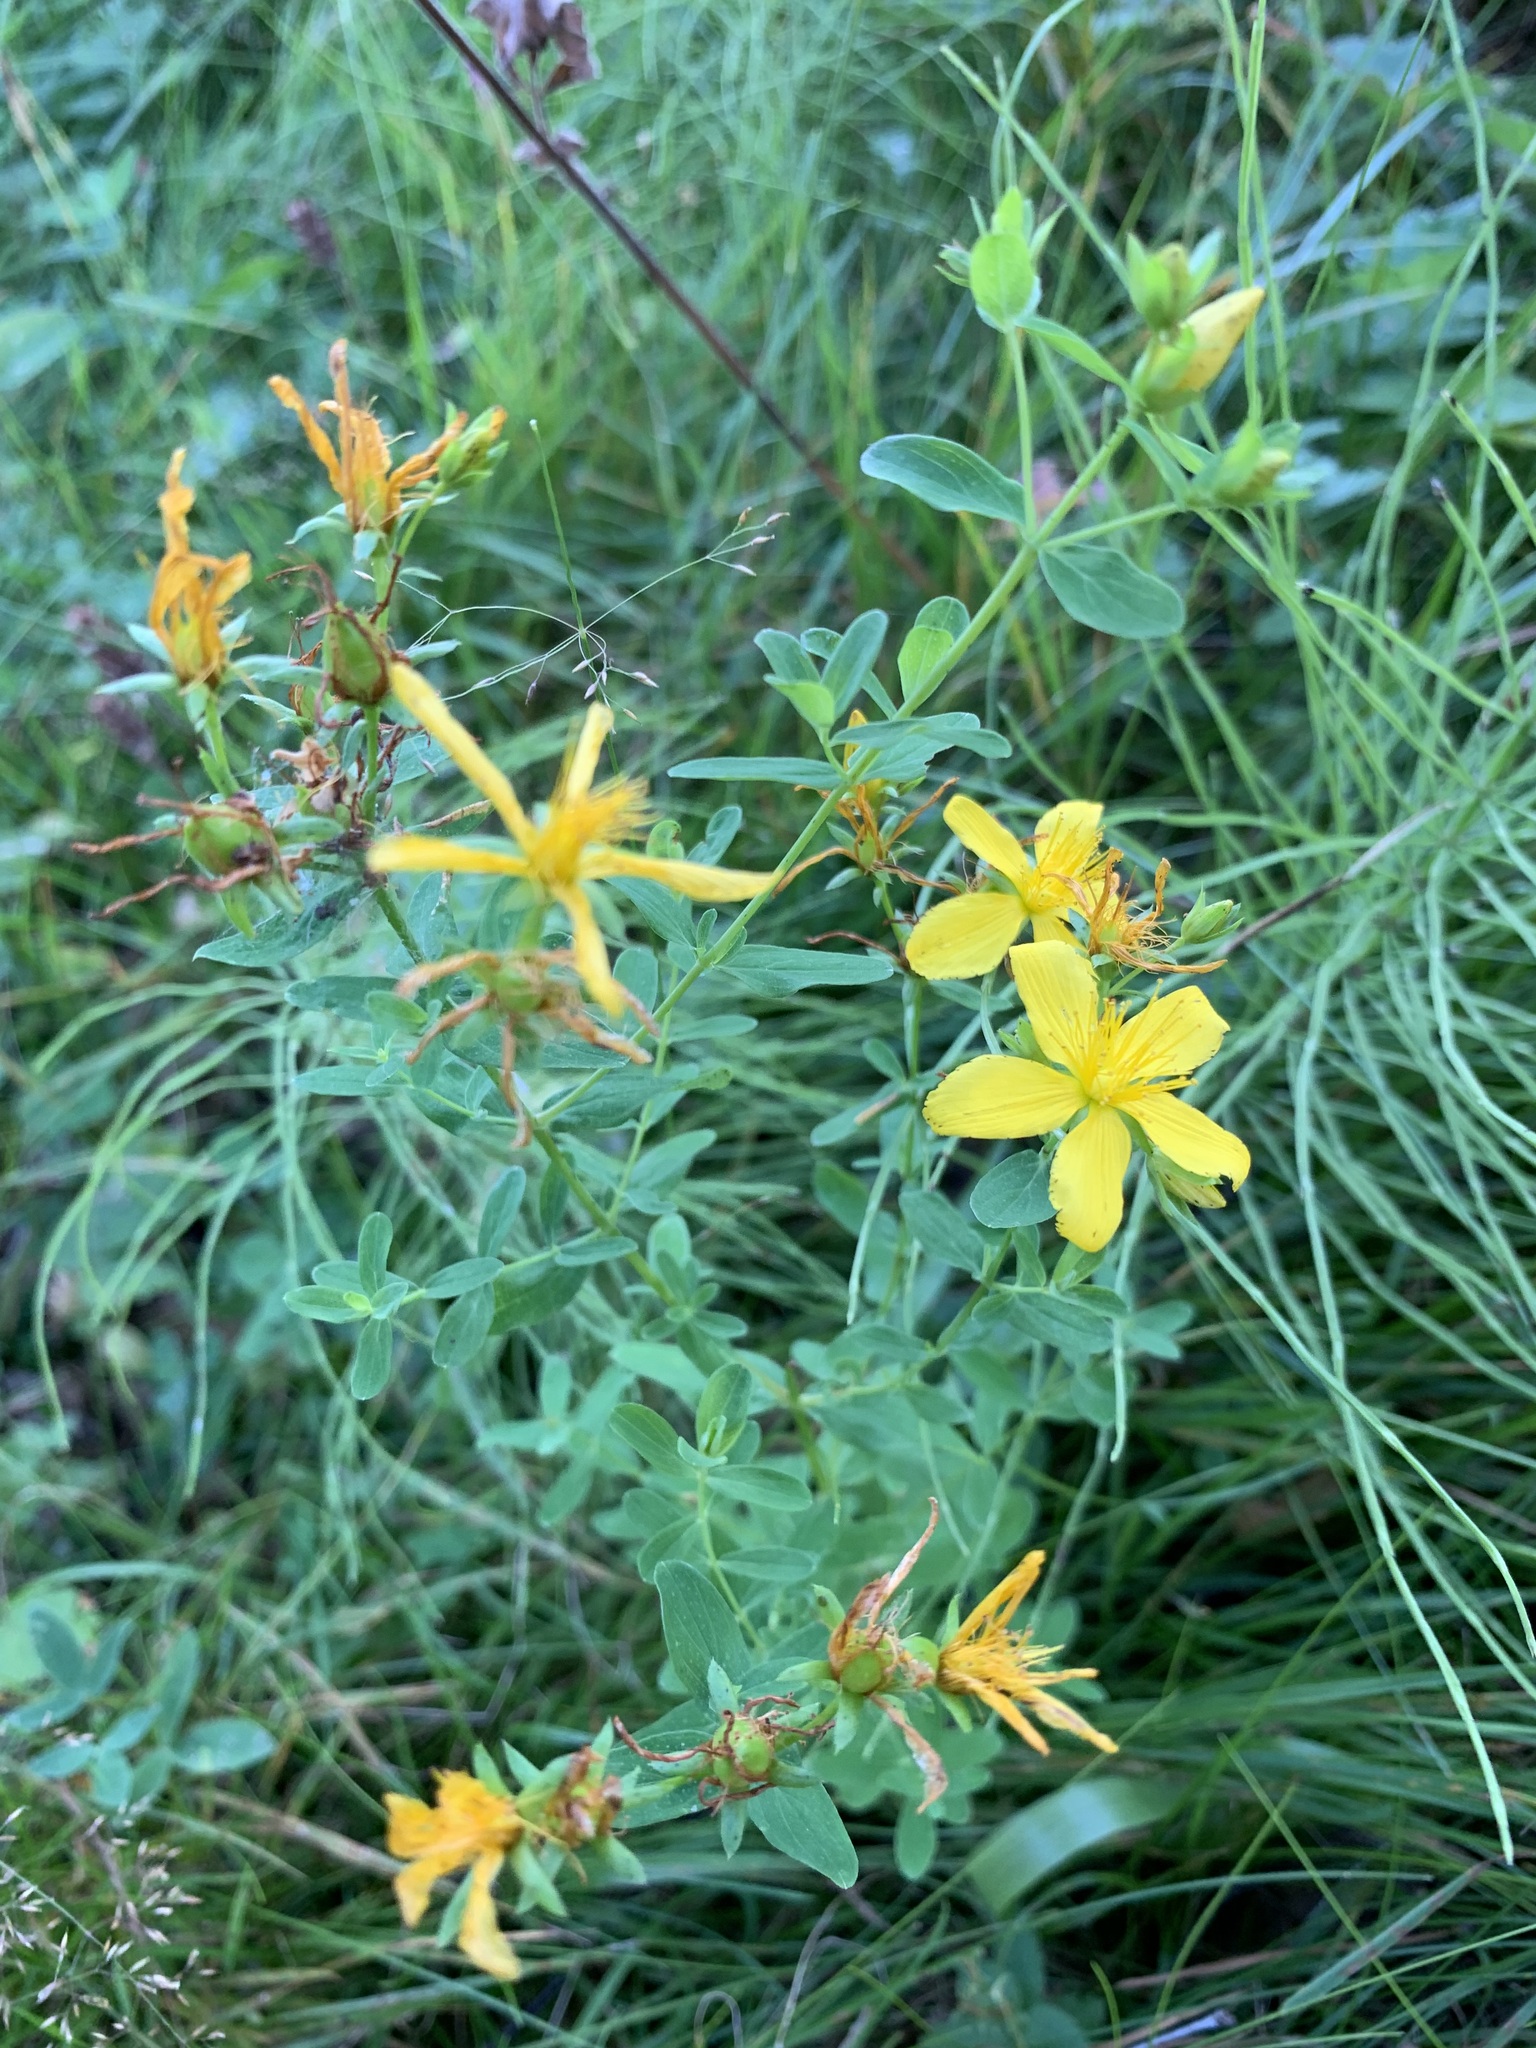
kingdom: Plantae
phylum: Tracheophyta
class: Magnoliopsida
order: Malpighiales
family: Hypericaceae
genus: Hypericum
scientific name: Hypericum perforatum
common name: Common st. johnswort
